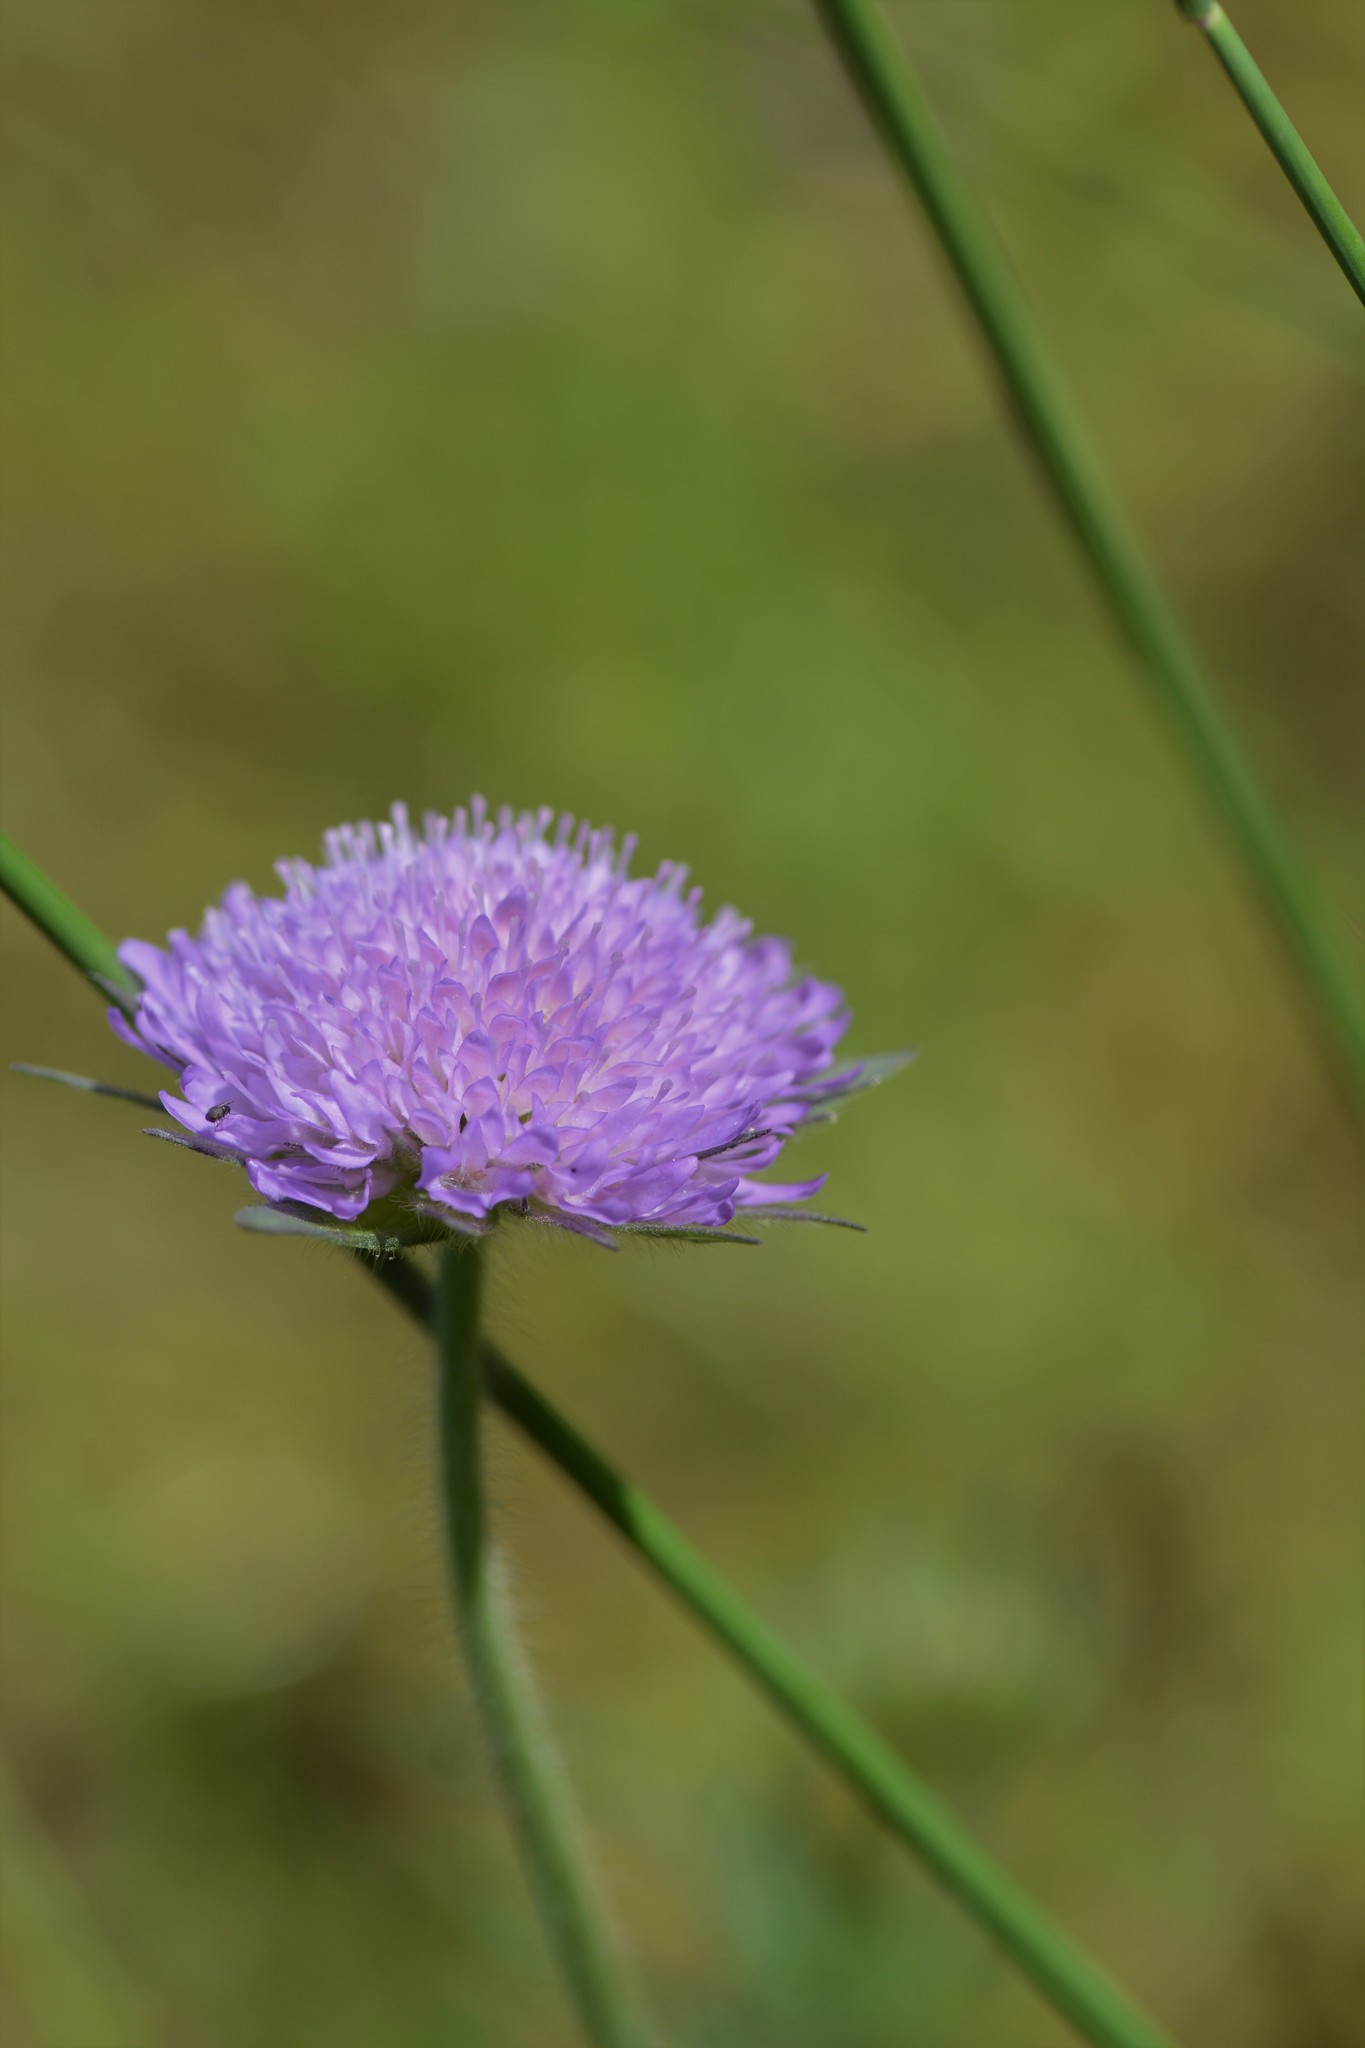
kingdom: Plantae
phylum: Tracheophyta
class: Magnoliopsida
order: Dipsacales
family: Caprifoliaceae
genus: Knautia
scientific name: Knautia arvensis
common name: Field scabiosa
